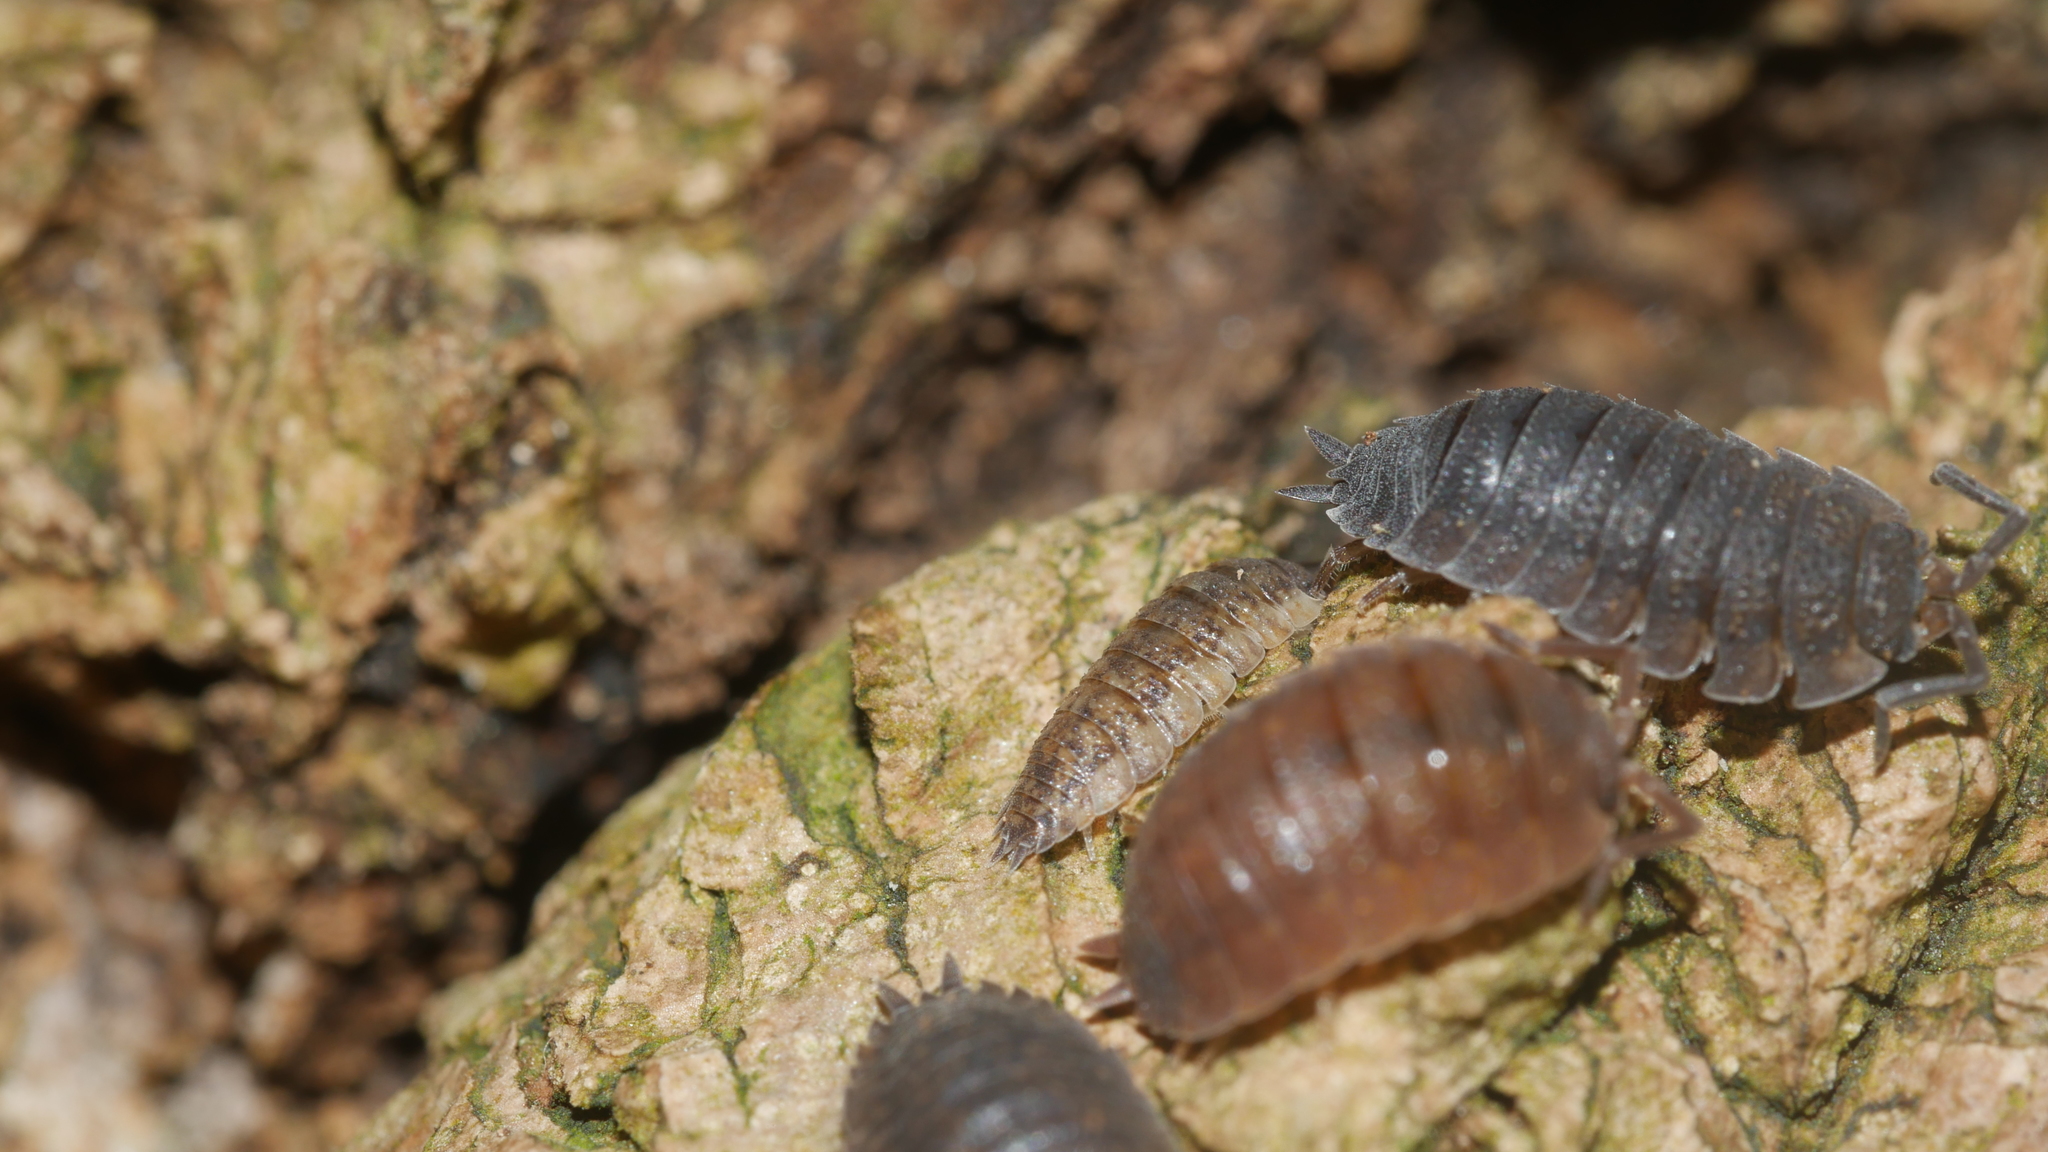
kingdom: Animalia
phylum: Arthropoda
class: Malacostraca
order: Isopoda
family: Porcellionidae
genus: Porcellio
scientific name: Porcellio scaber
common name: Common rough woodlouse
